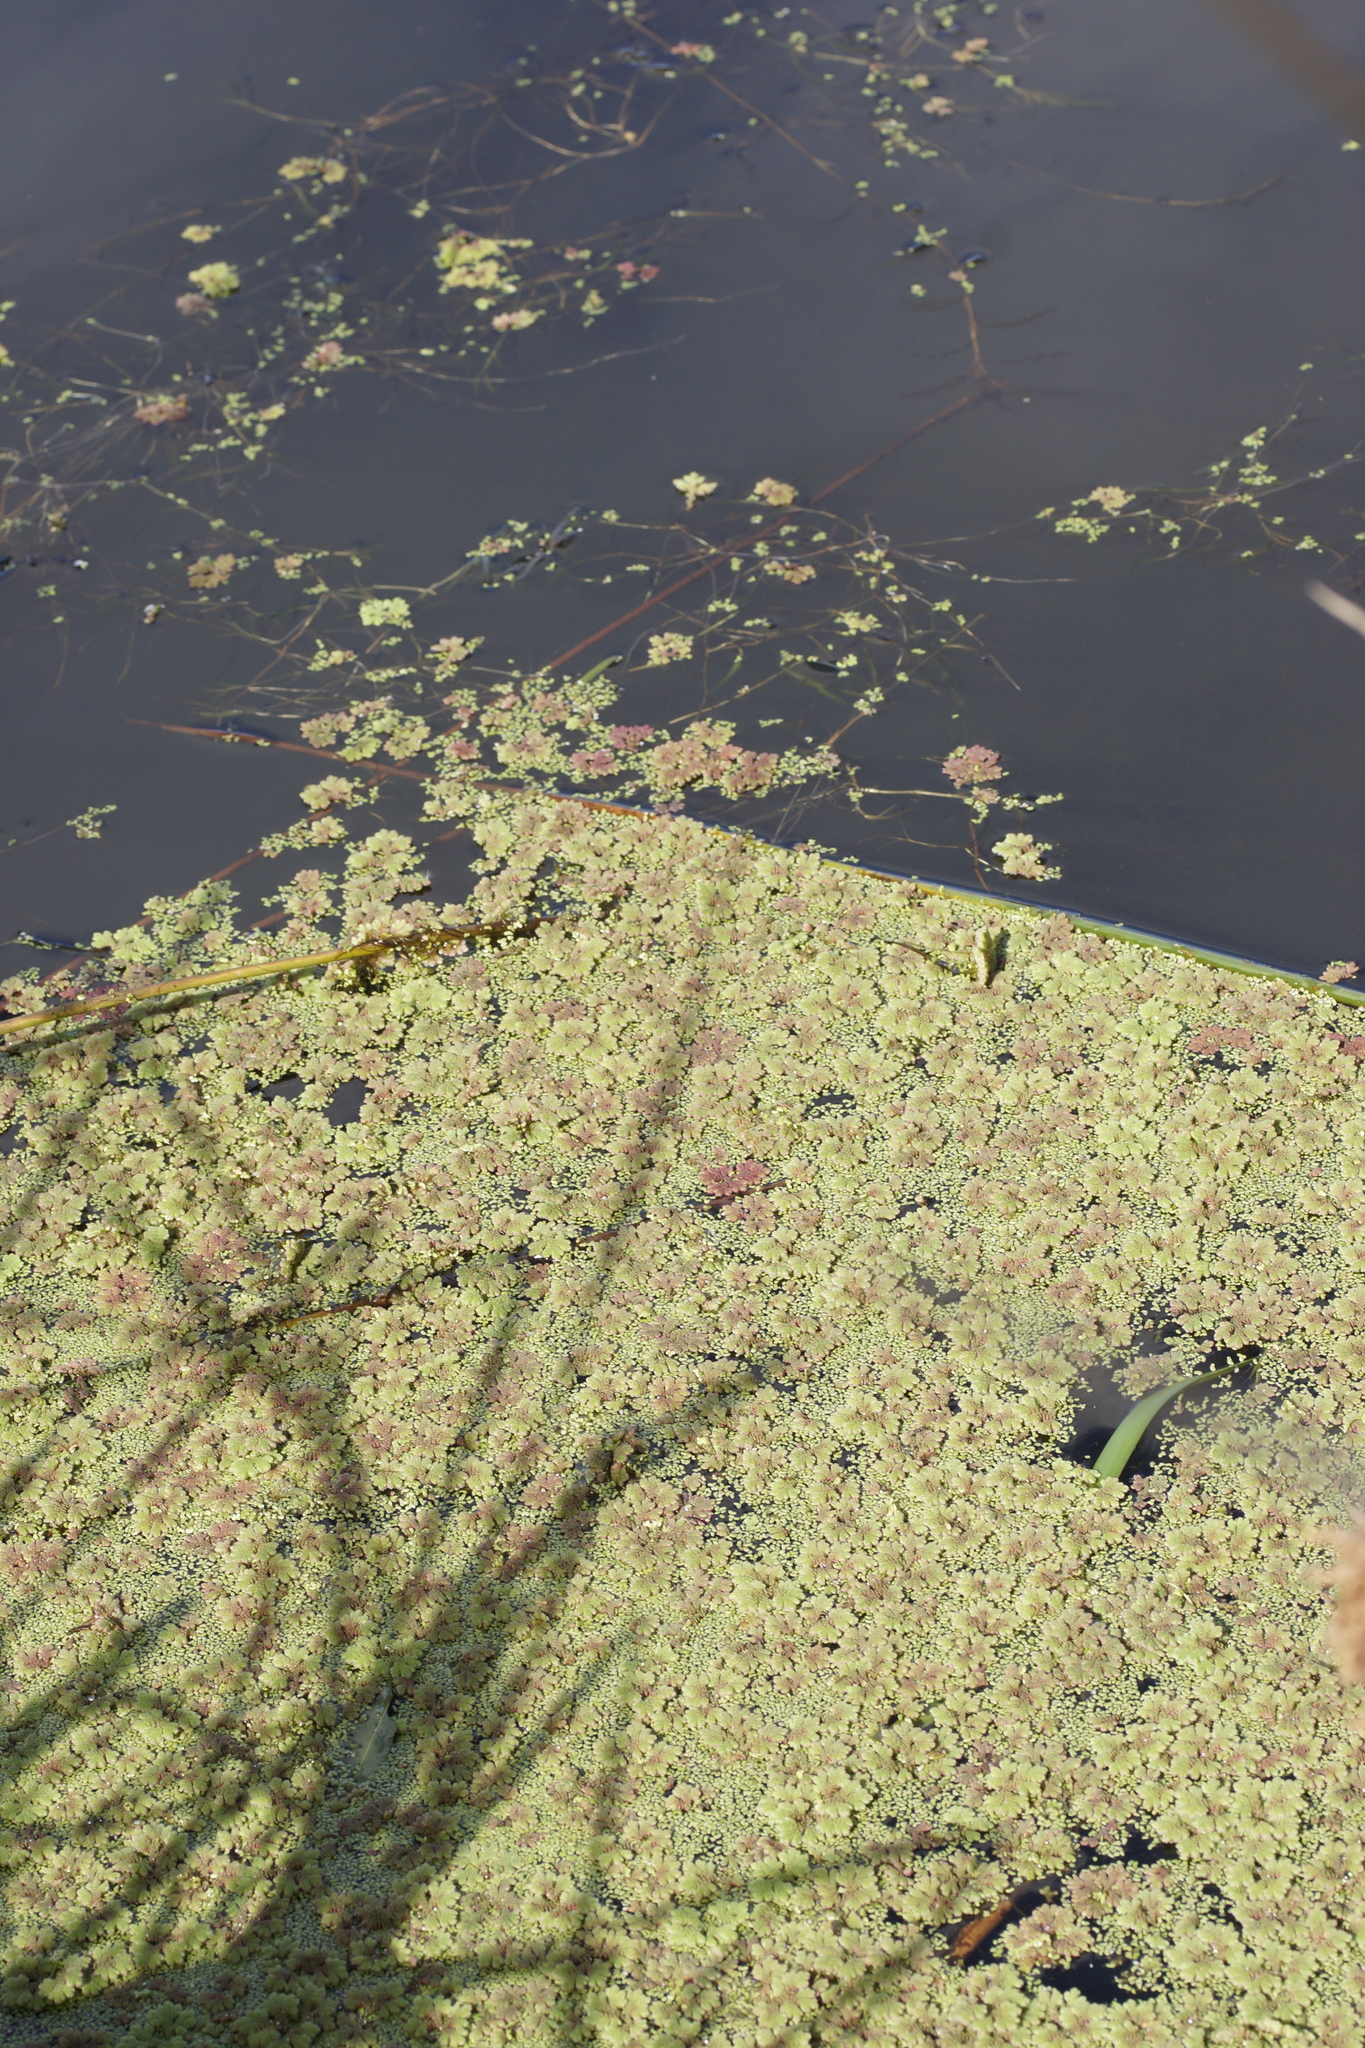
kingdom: Plantae
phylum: Tracheophyta
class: Polypodiopsida
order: Salviniales
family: Salviniaceae
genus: Azolla
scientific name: Azolla rubra
